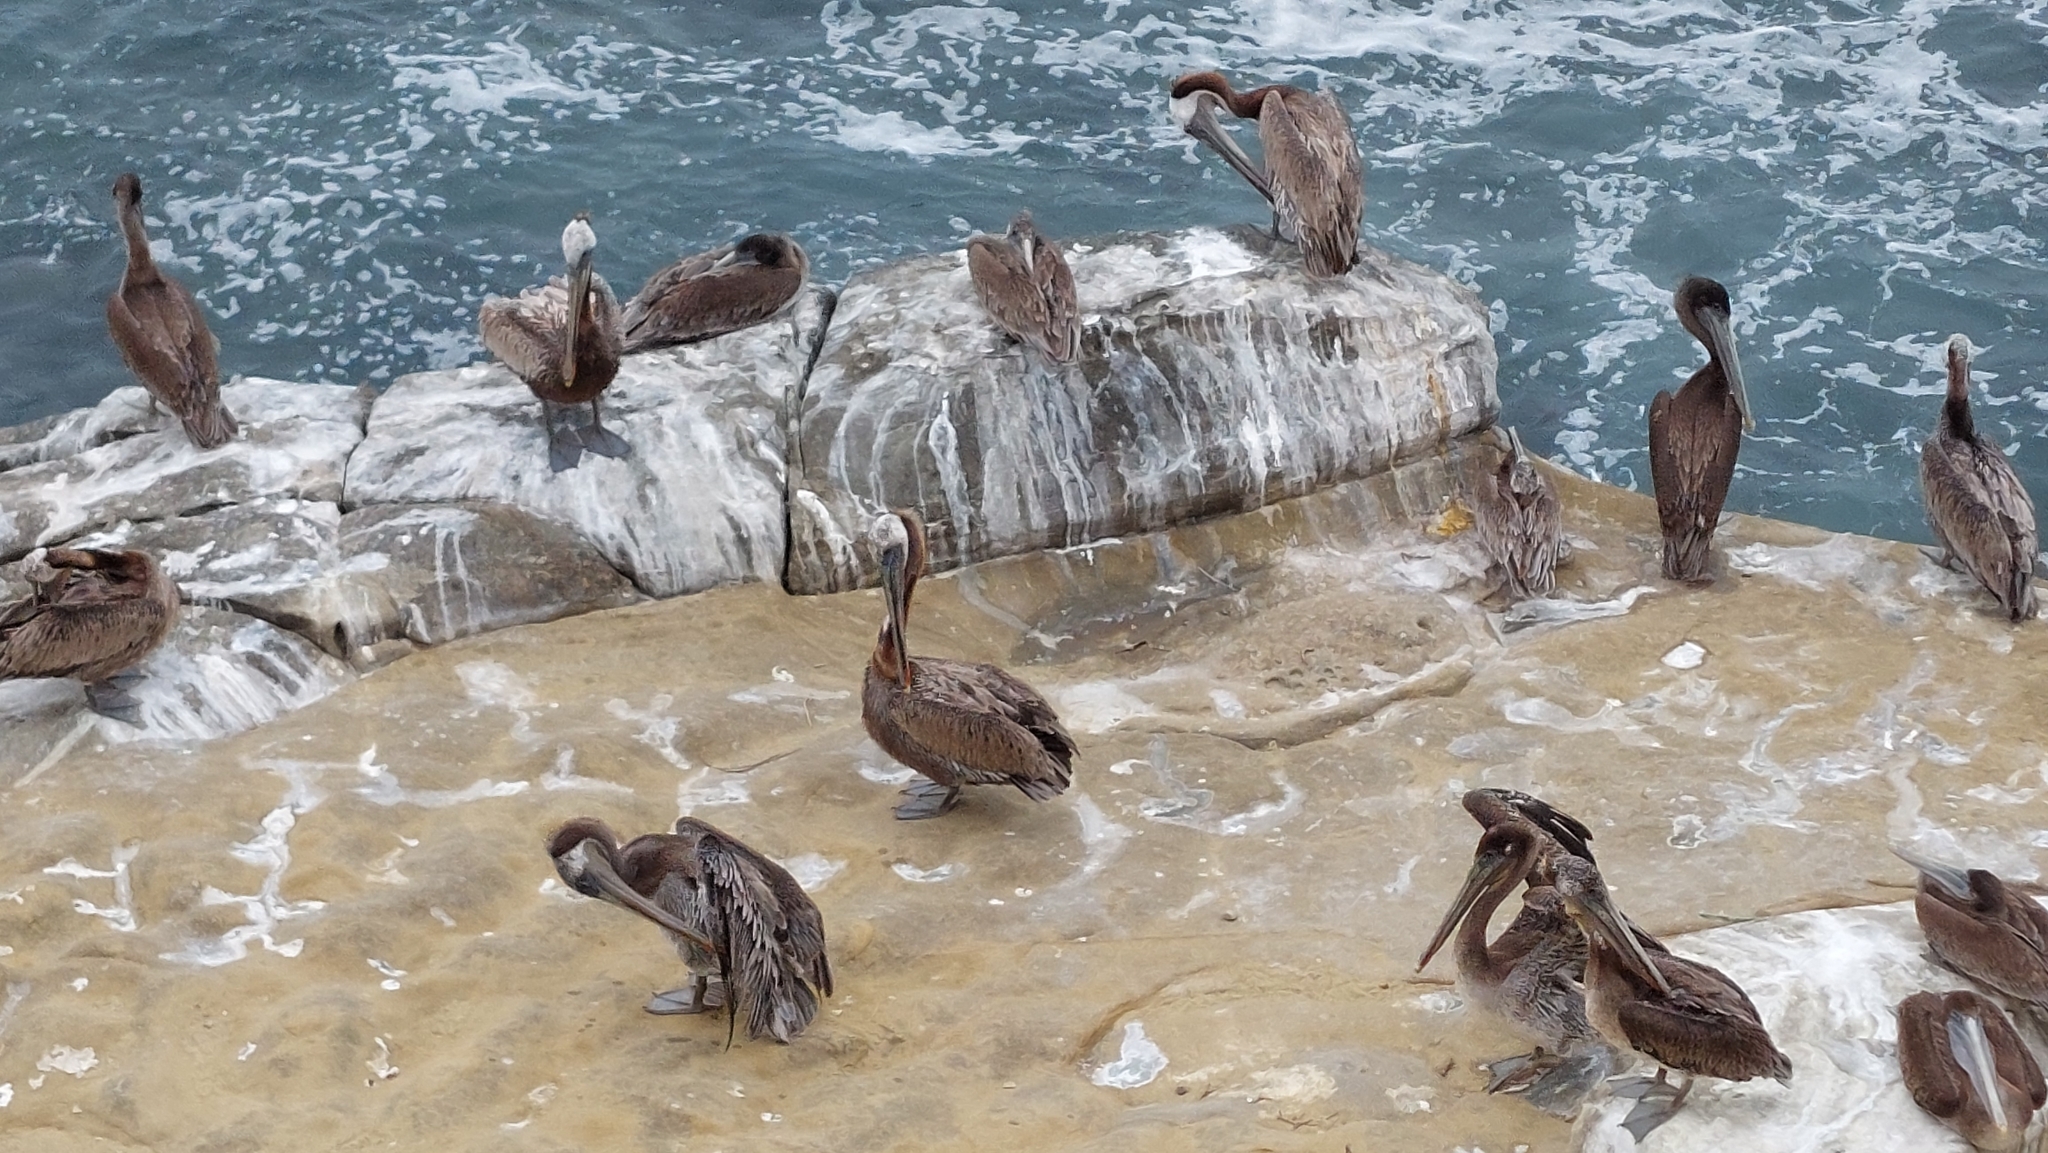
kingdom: Animalia
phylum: Chordata
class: Aves
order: Pelecaniformes
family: Pelecanidae
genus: Pelecanus
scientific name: Pelecanus occidentalis
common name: Brown pelican
